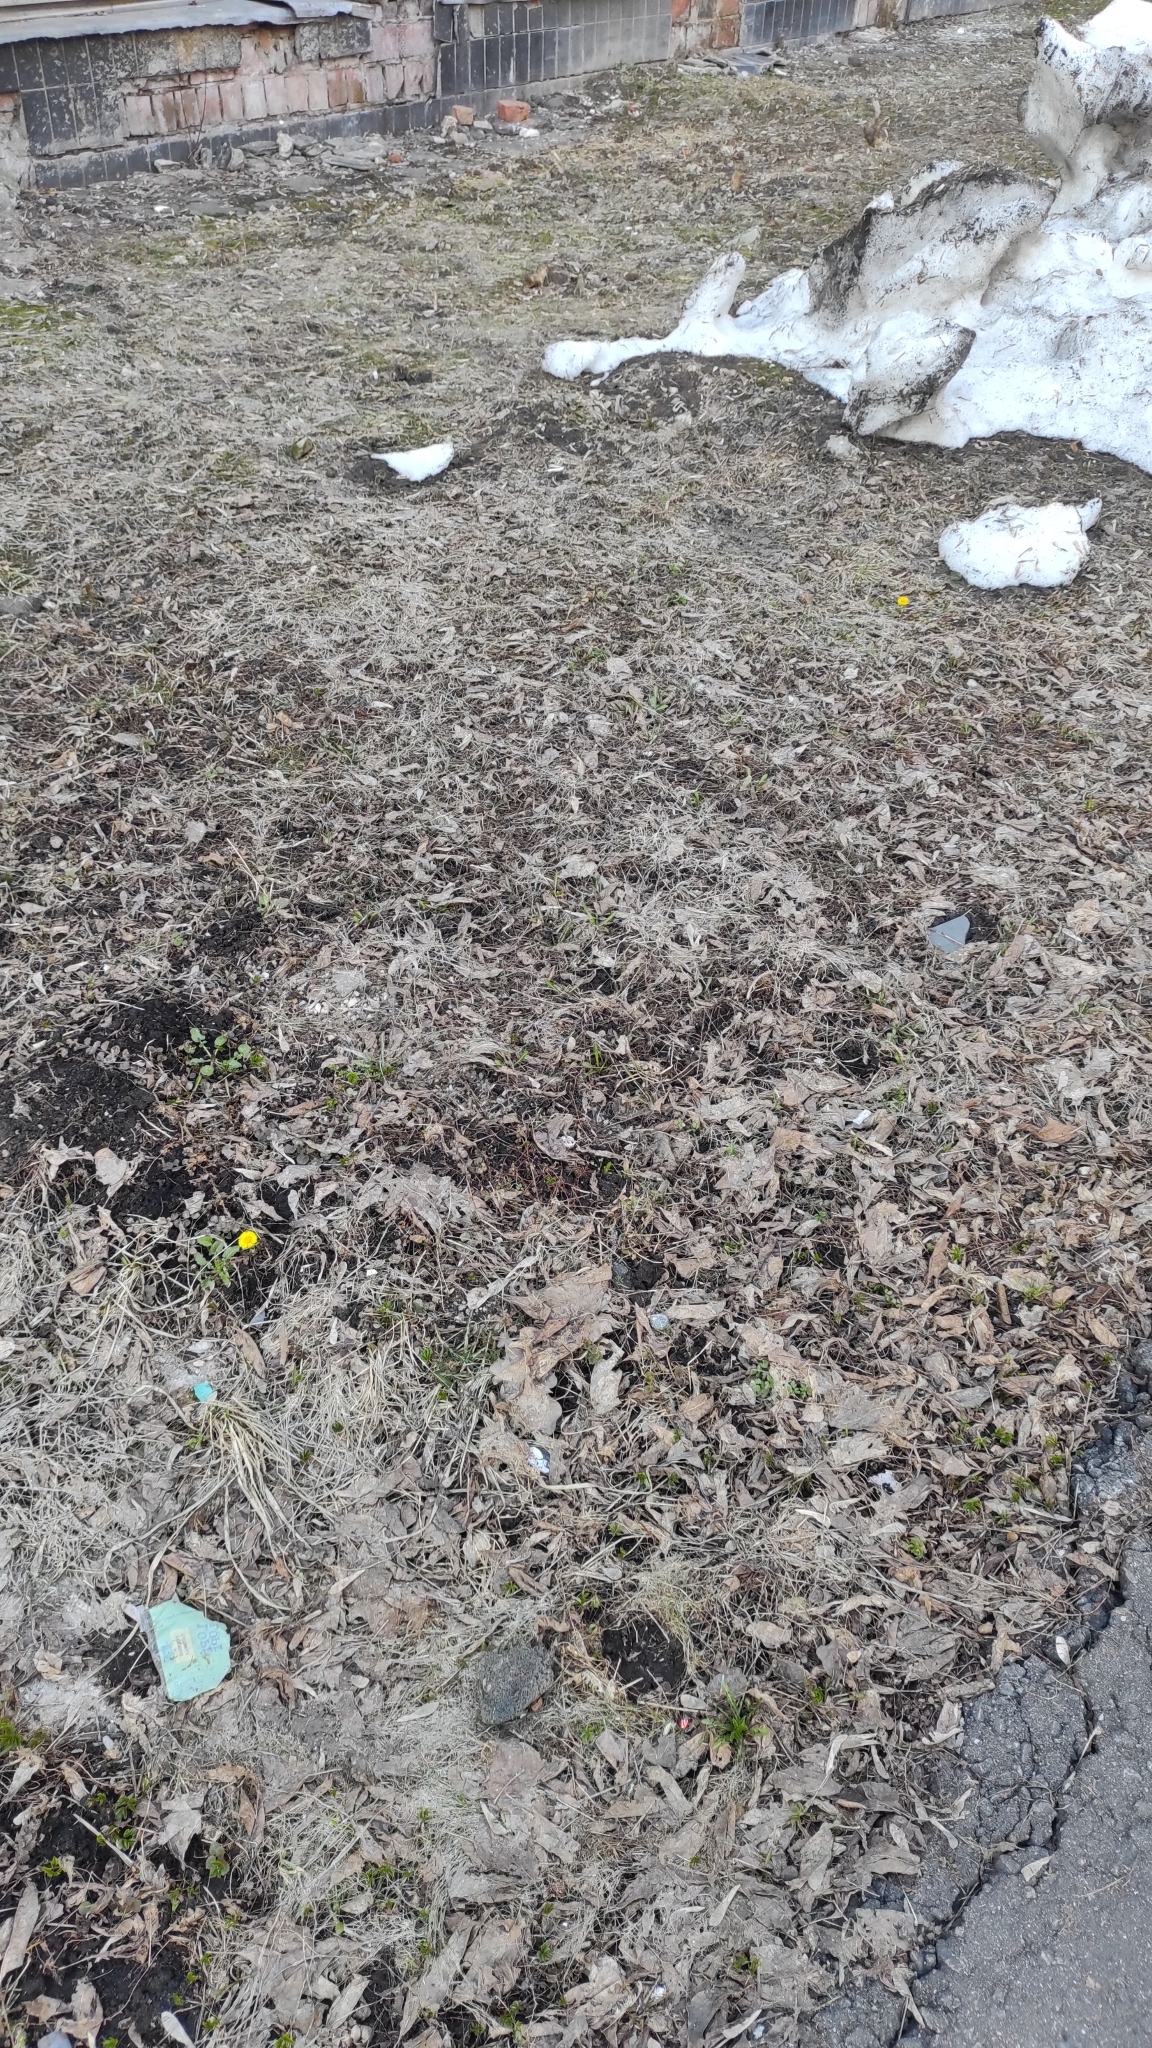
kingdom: Plantae
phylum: Tracheophyta
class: Magnoliopsida
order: Asterales
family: Asteraceae
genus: Tussilago
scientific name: Tussilago farfara
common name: Coltsfoot
